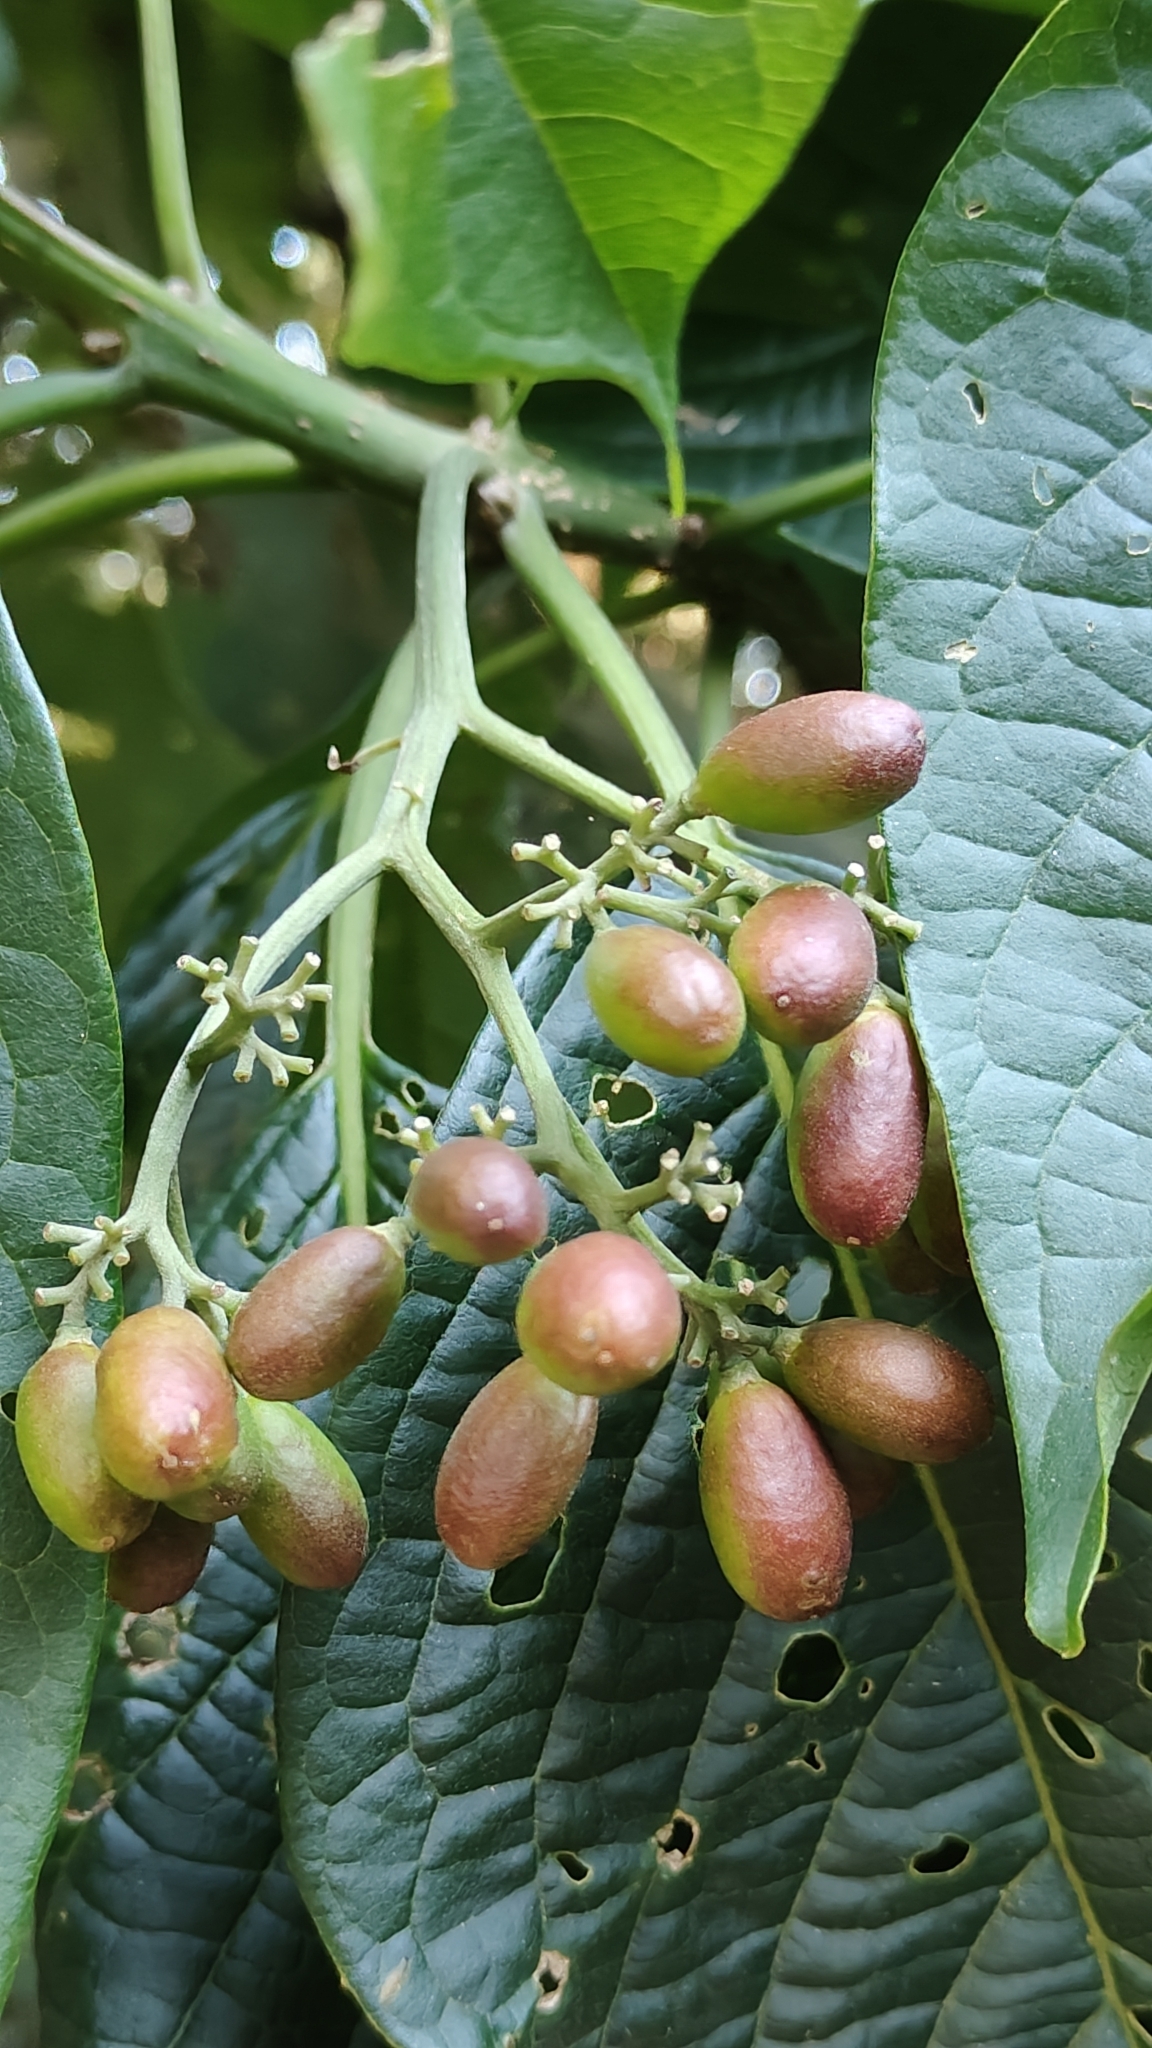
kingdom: Plantae
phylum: Tracheophyta
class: Magnoliopsida
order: Icacinales
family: Icacinaceae
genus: Nothapodytes
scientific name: Nothapodytes nimmoniana
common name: Nothapodytes
